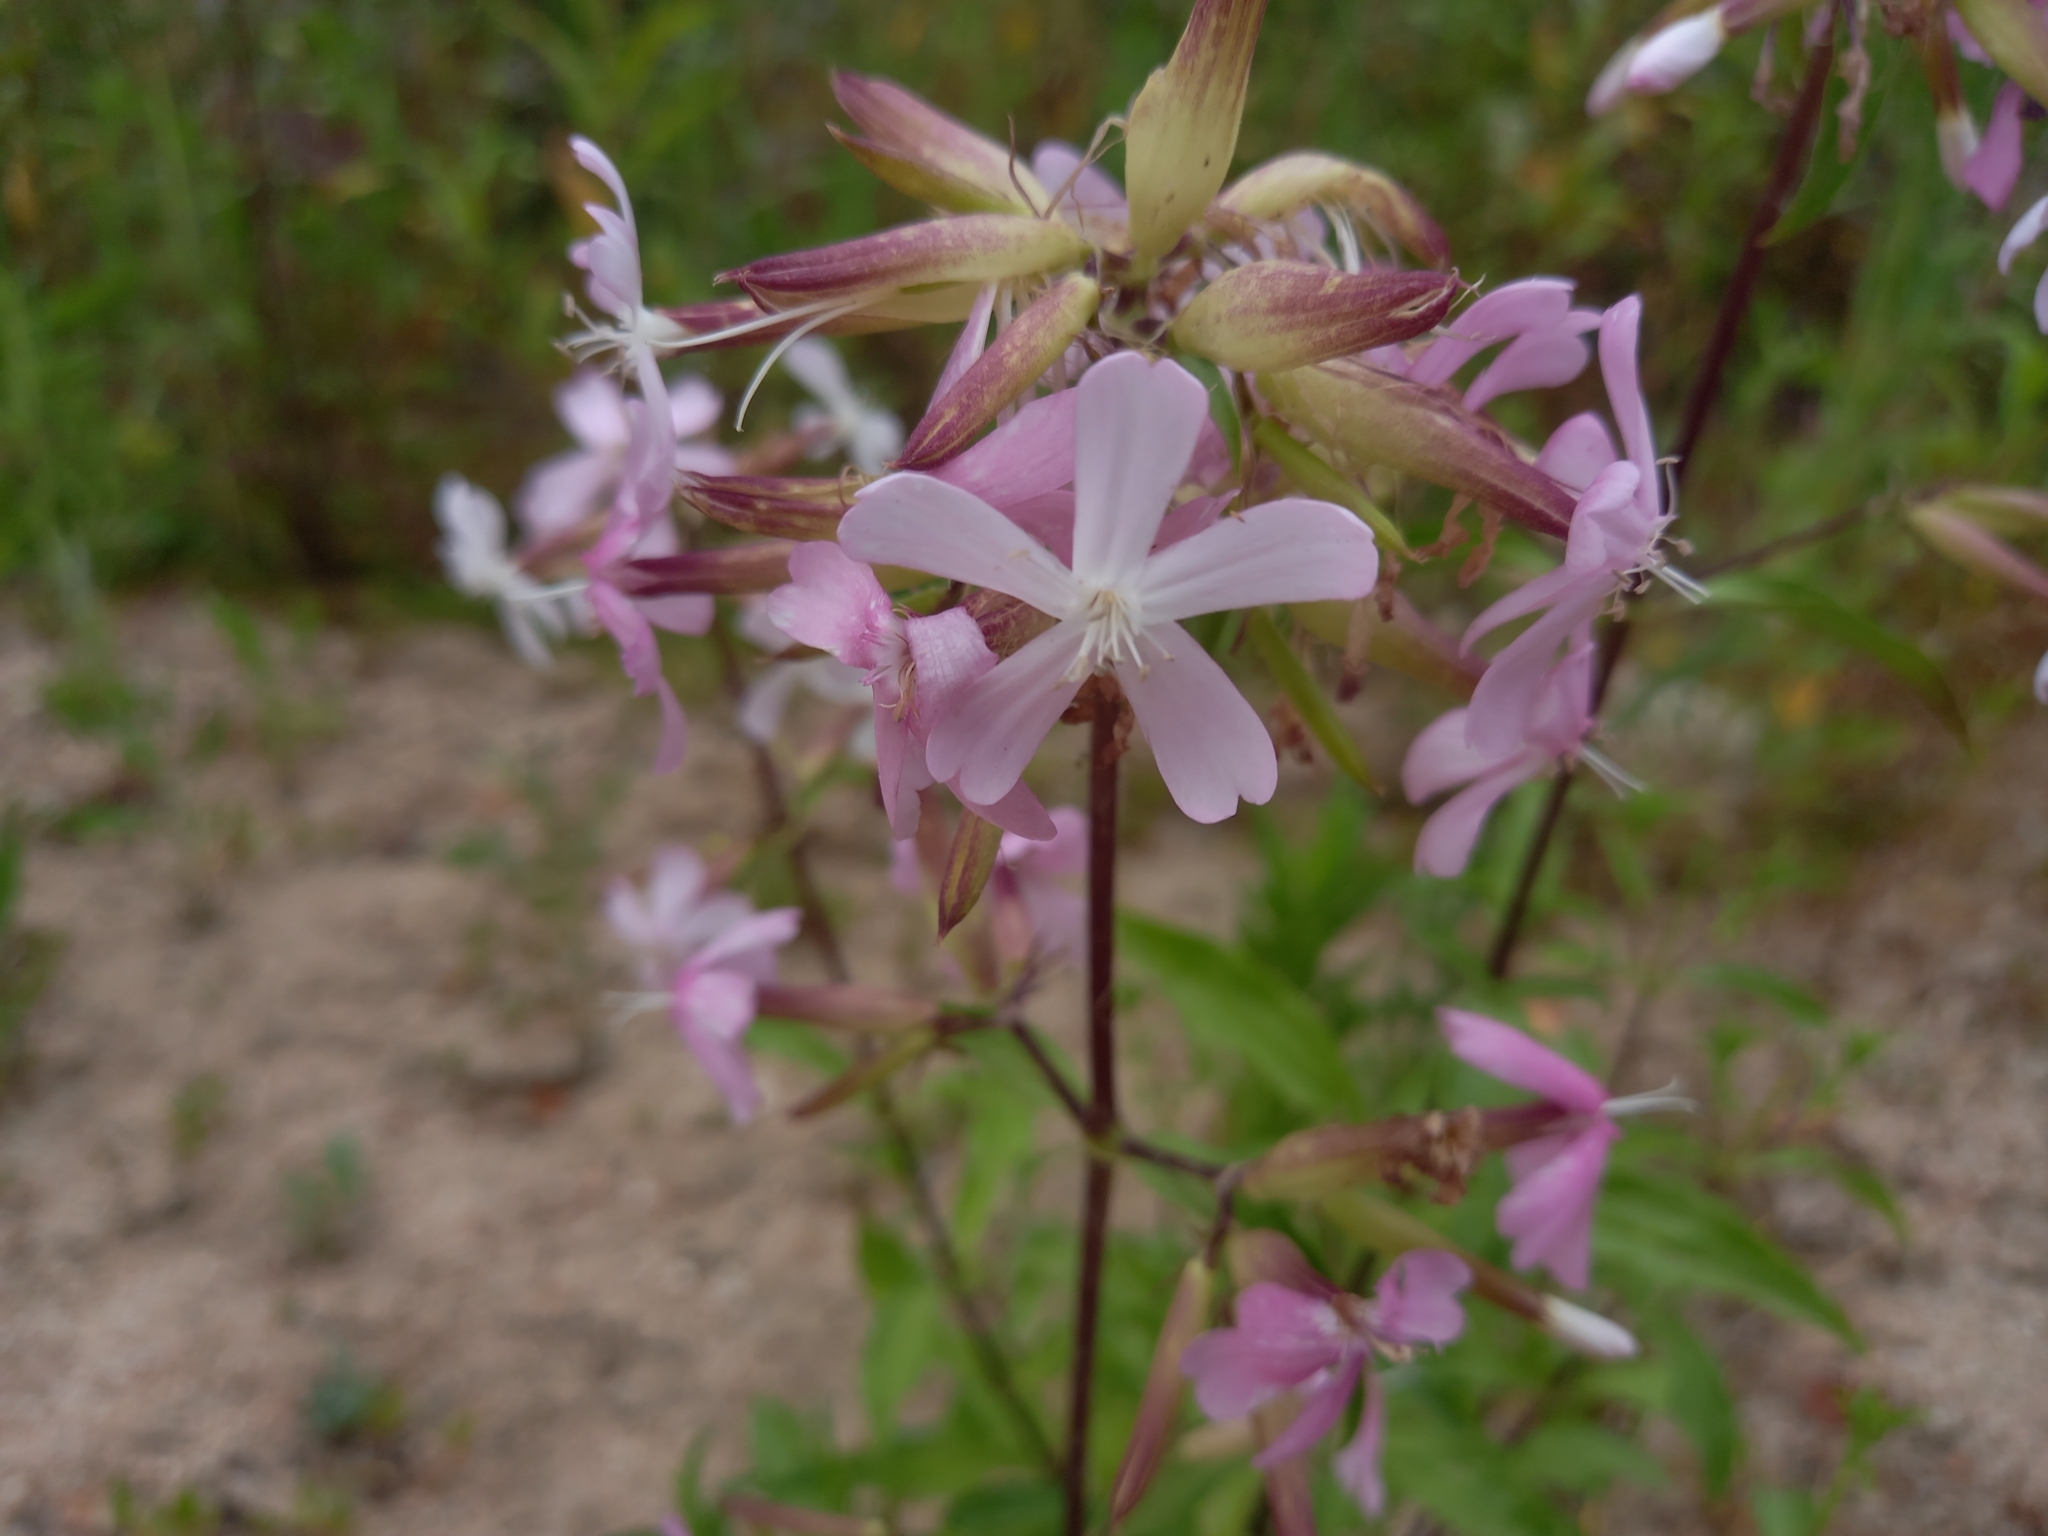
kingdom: Plantae
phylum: Tracheophyta
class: Magnoliopsida
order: Caryophyllales
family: Caryophyllaceae
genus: Saponaria
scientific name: Saponaria officinalis
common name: Soapwort
